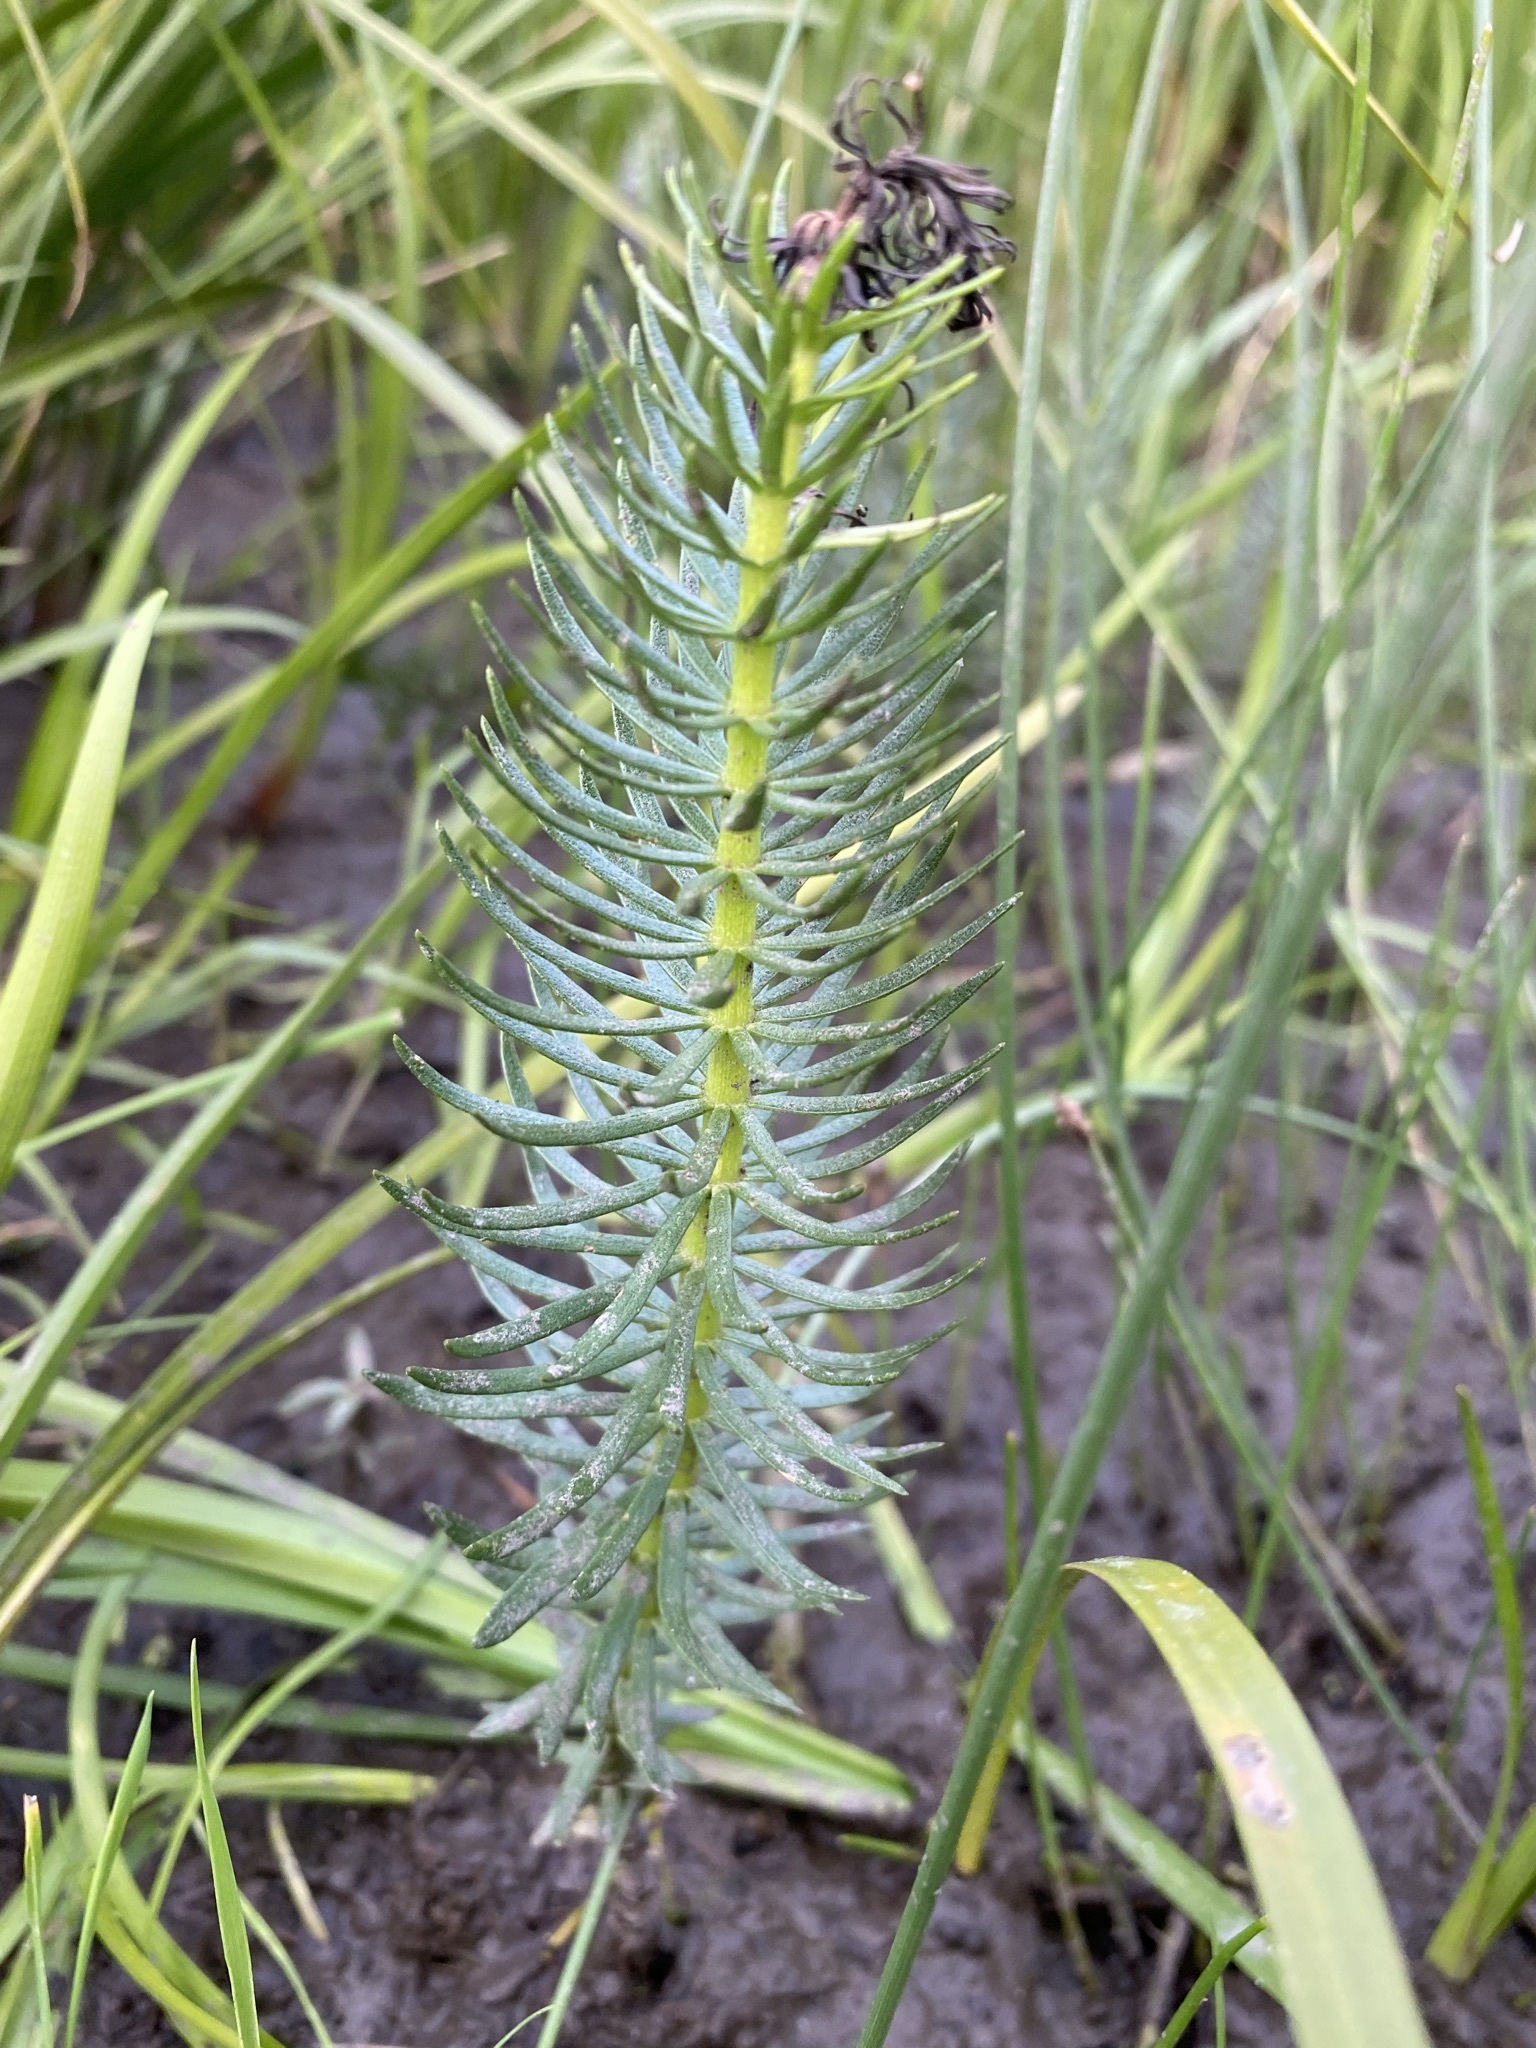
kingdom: Plantae
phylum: Tracheophyta
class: Magnoliopsida
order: Lamiales
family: Plantaginaceae
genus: Hippuris
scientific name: Hippuris vulgaris
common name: Mare's-tail
